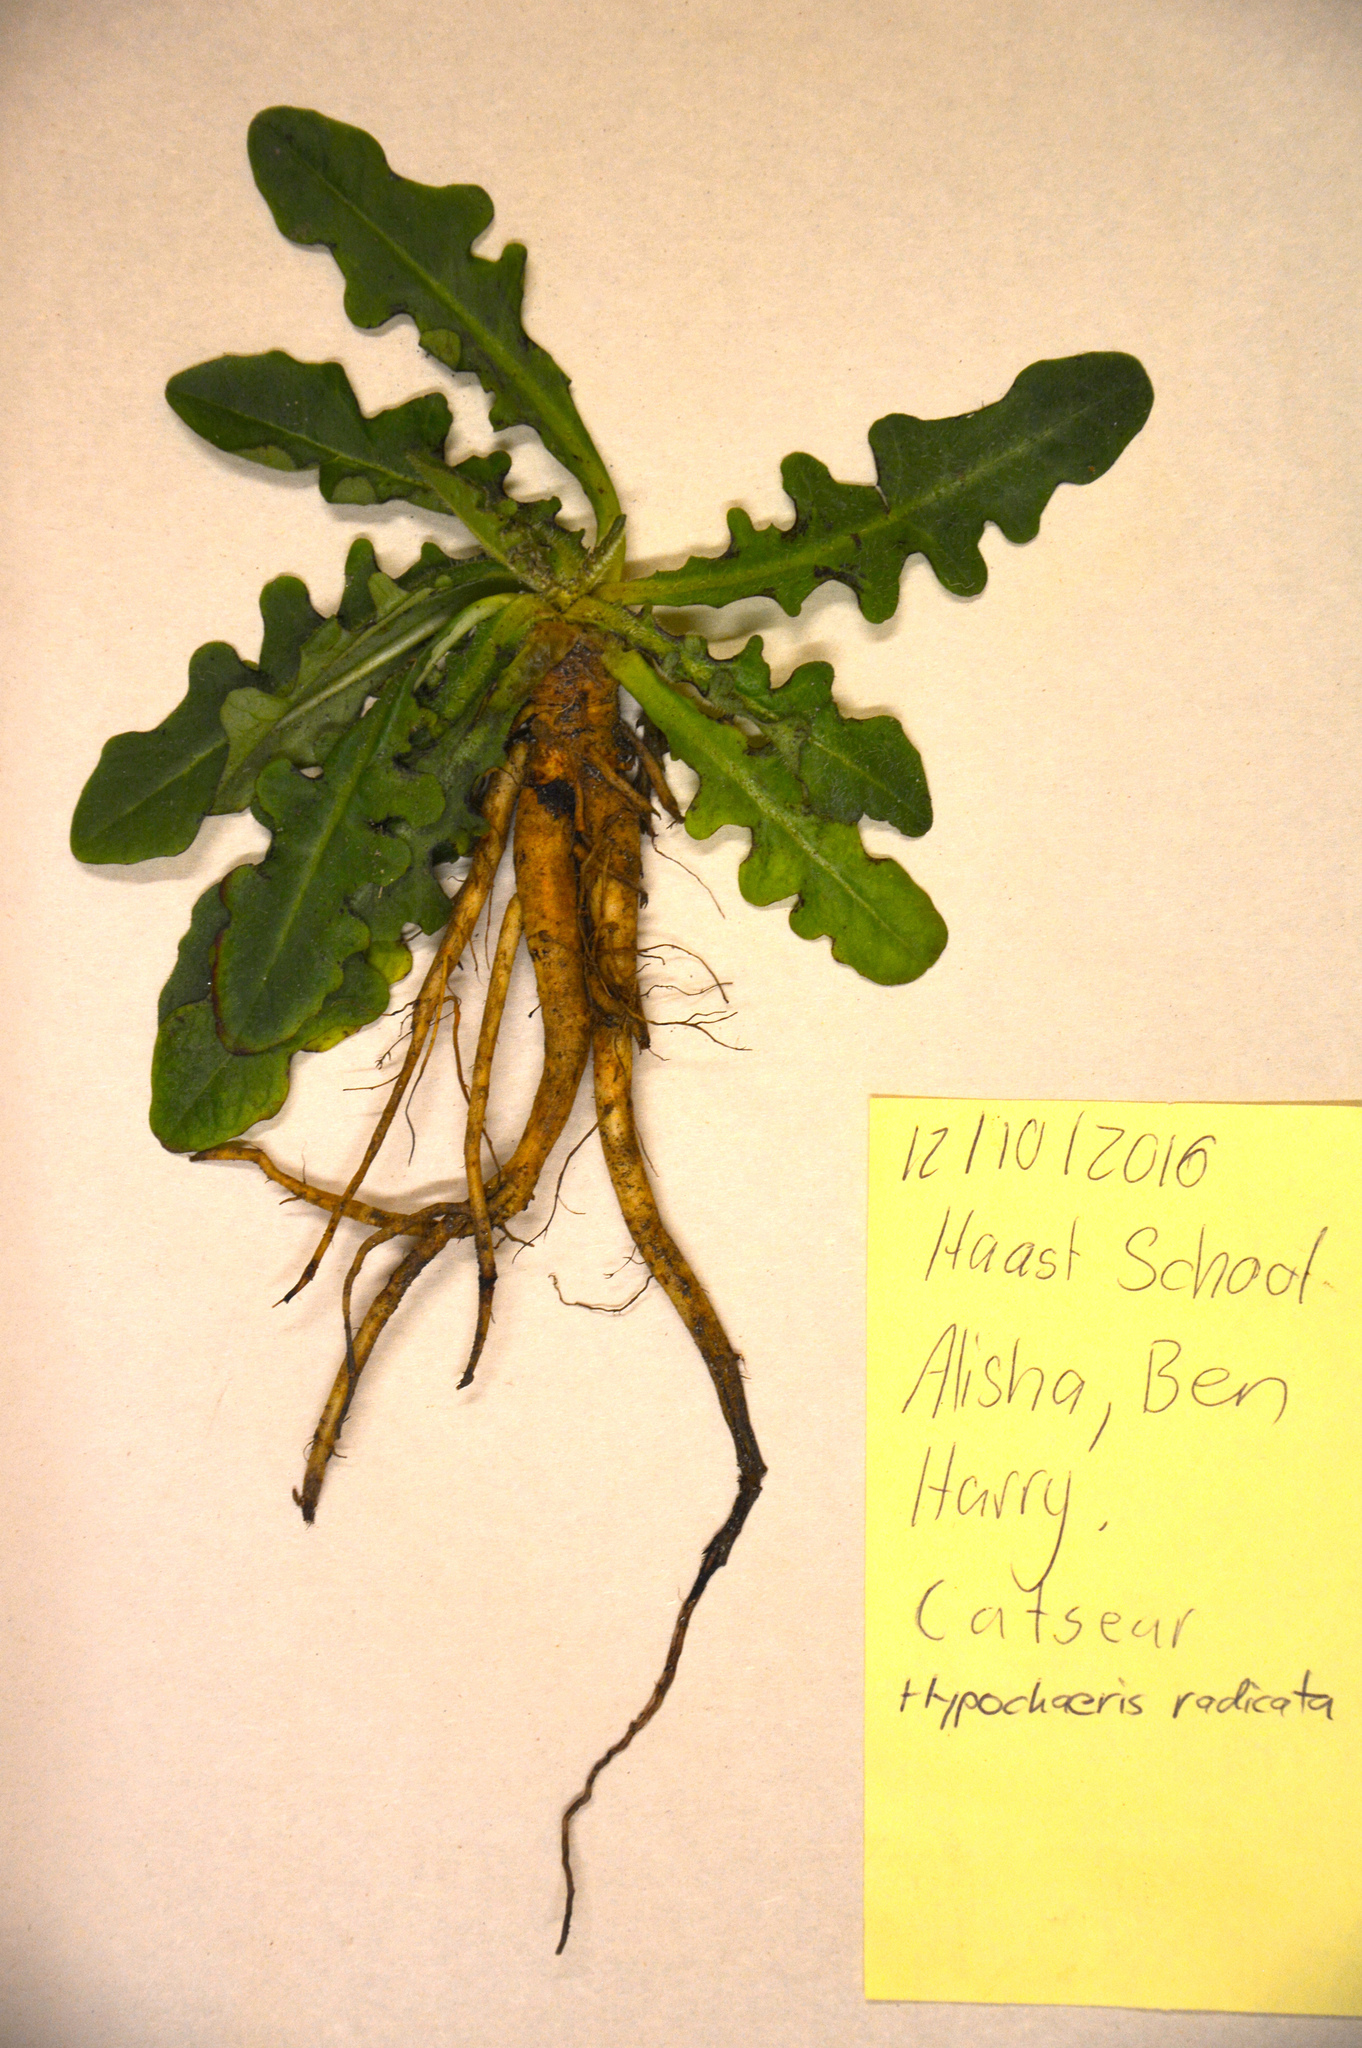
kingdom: Plantae
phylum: Tracheophyta
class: Magnoliopsida
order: Asterales
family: Asteraceae
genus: Hypochaeris
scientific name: Hypochaeris radicata
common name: Flatweed
